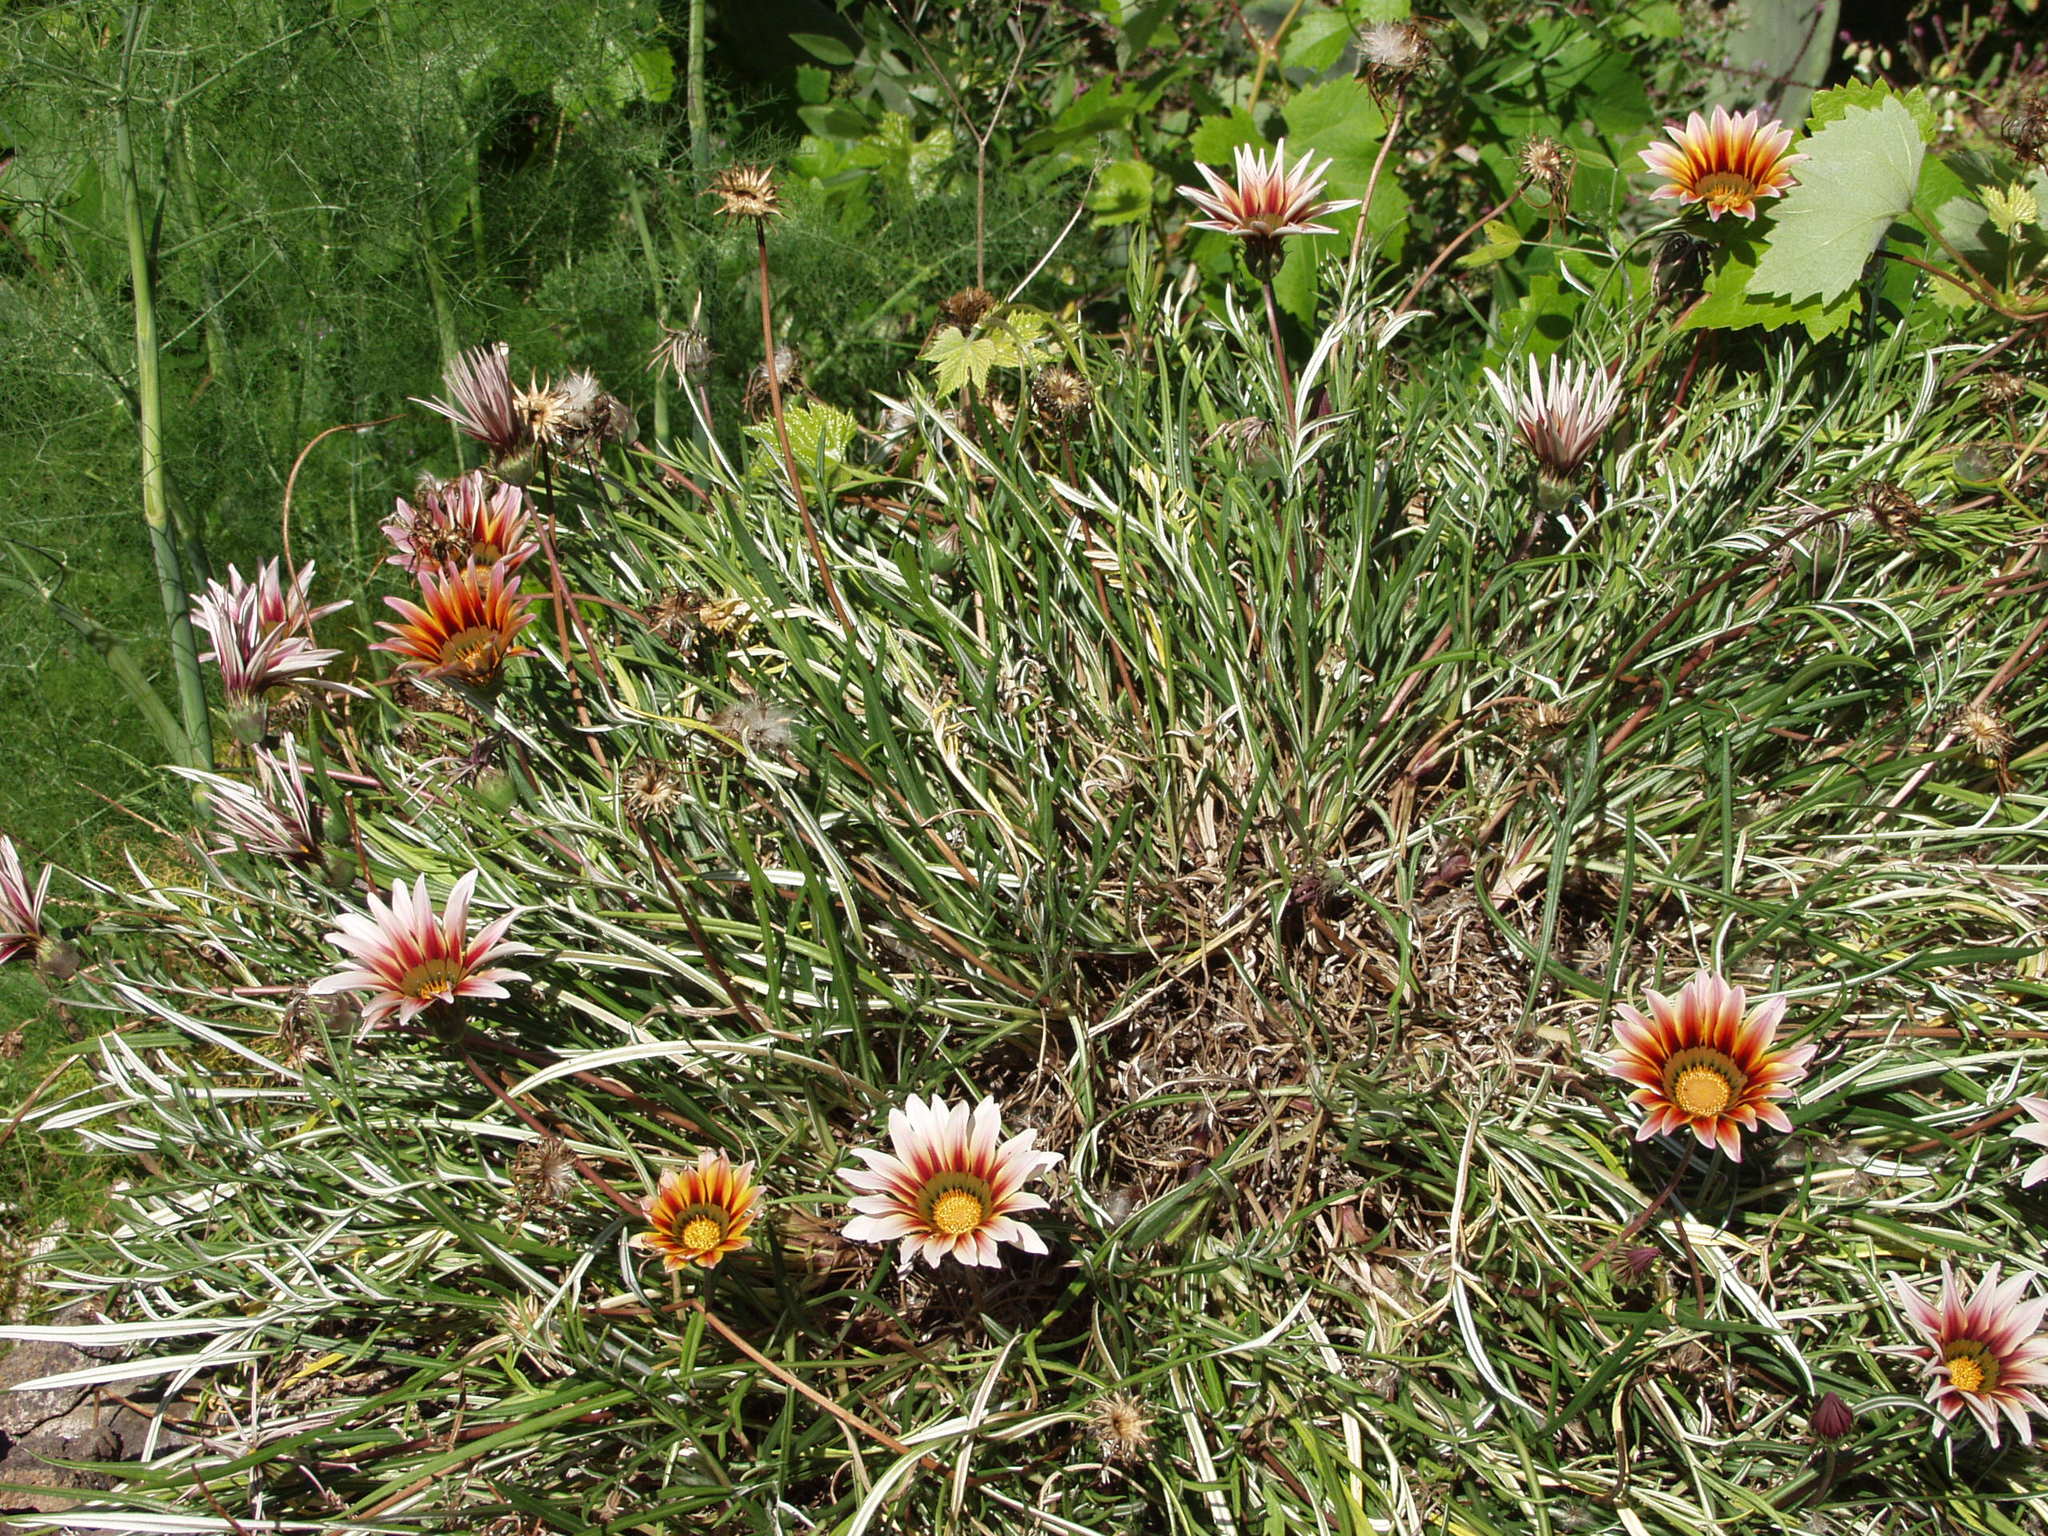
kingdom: Plantae
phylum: Tracheophyta
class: Magnoliopsida
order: Asterales
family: Asteraceae
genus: Gazania
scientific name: Gazania splendens
